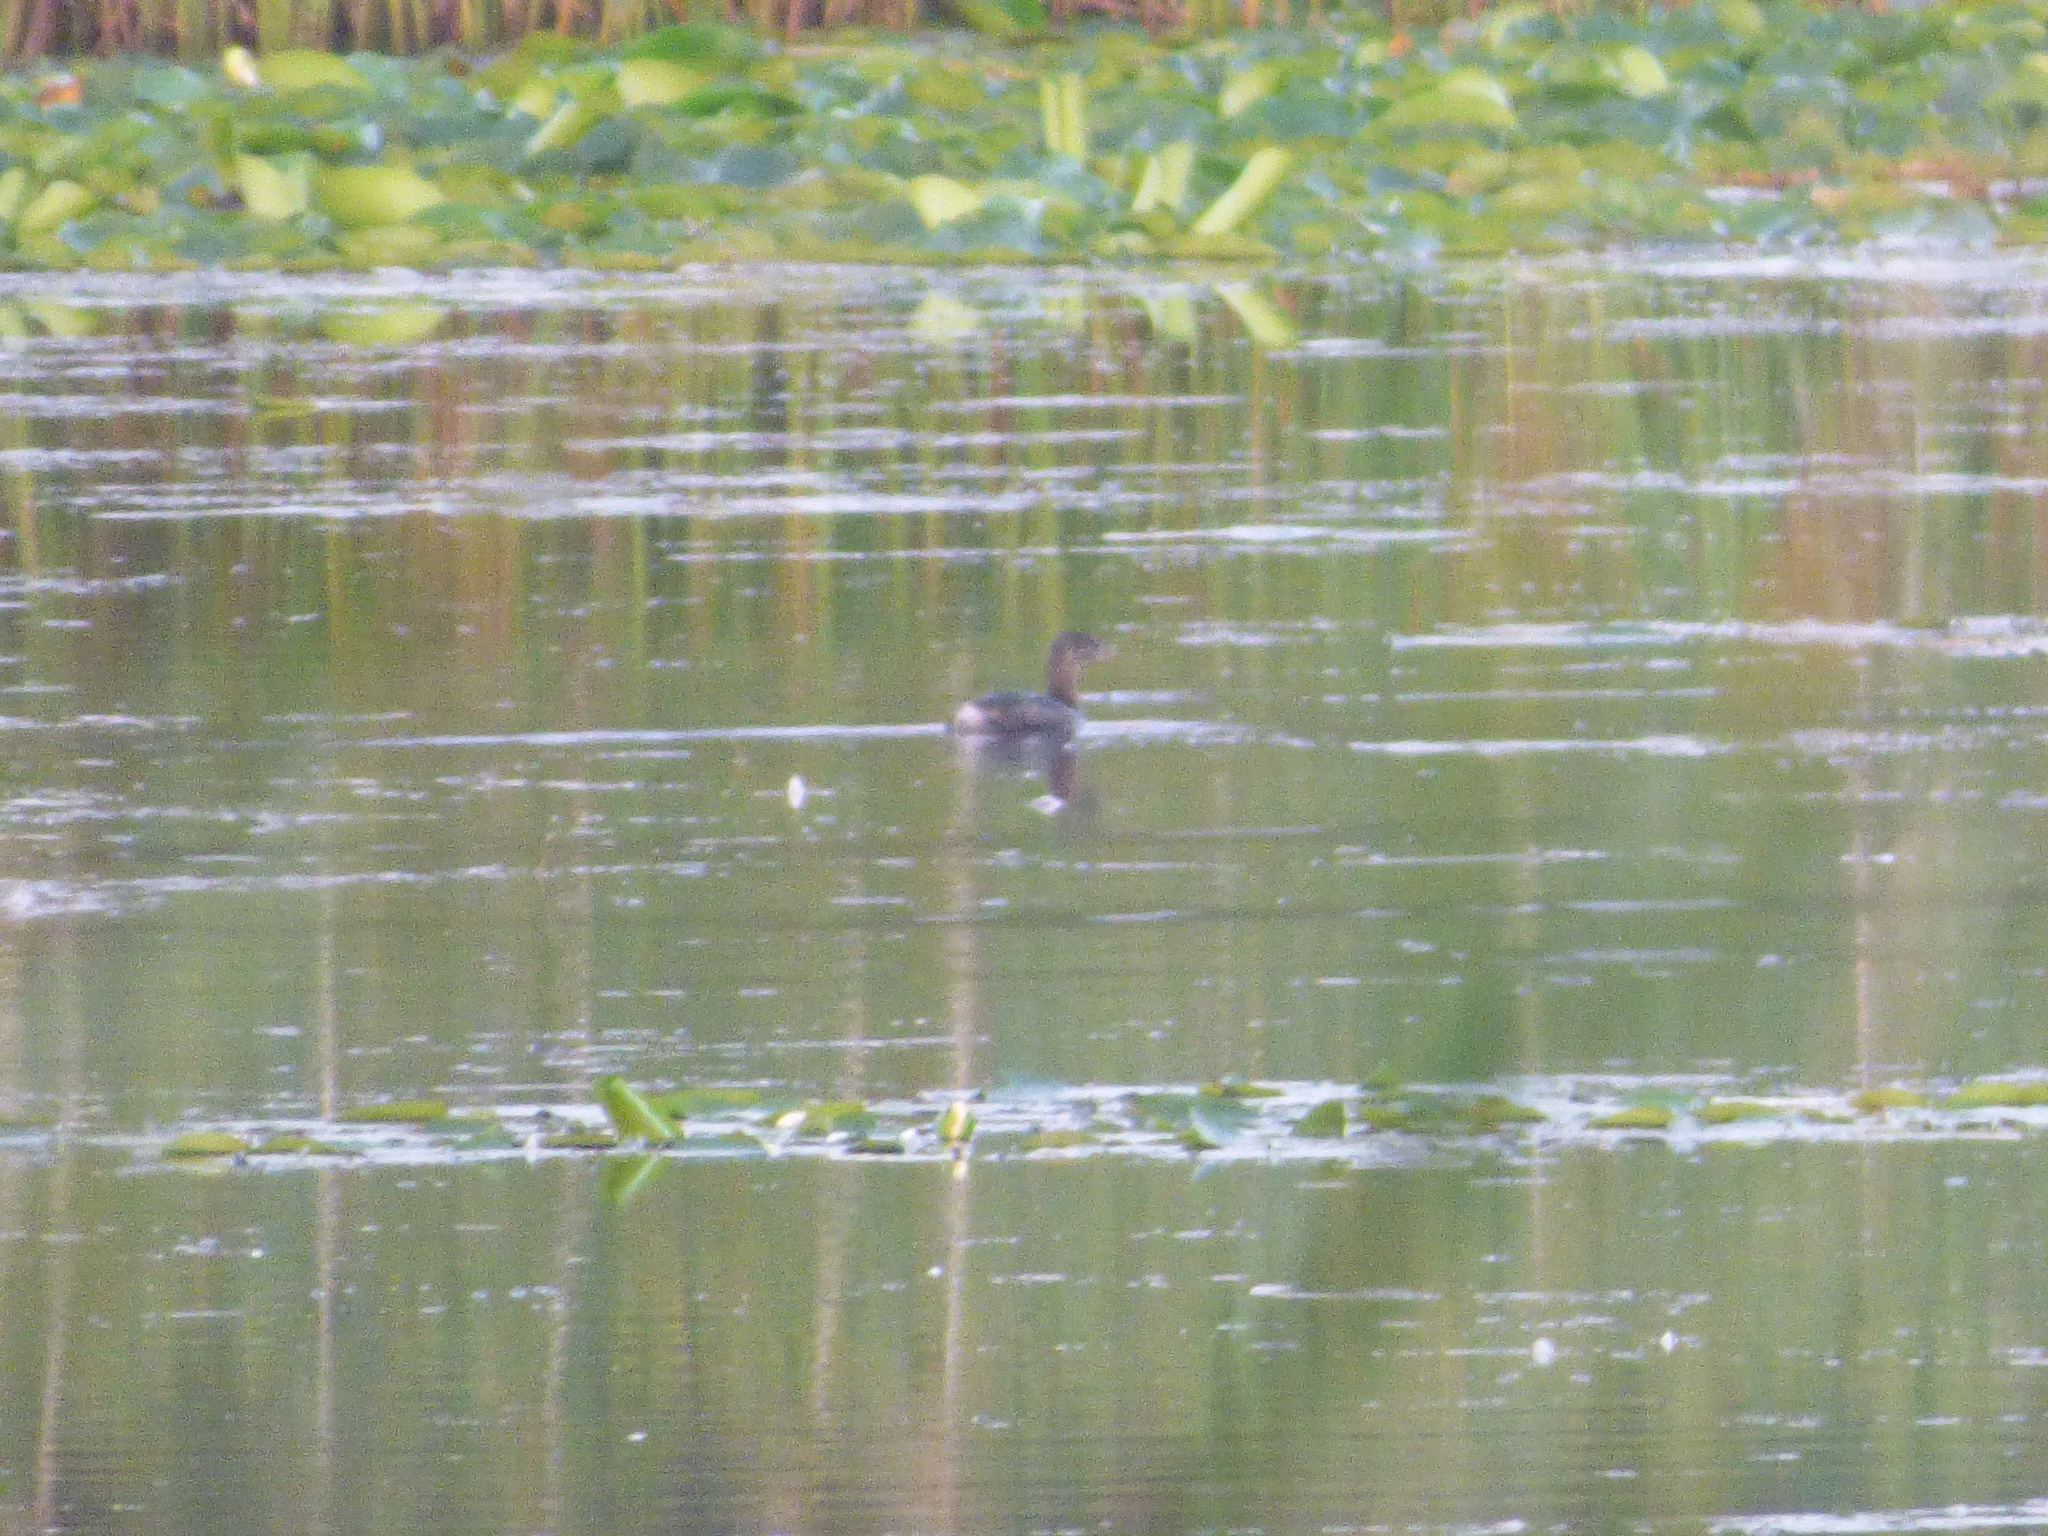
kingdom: Animalia
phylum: Chordata
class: Aves
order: Podicipediformes
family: Podicipedidae
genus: Podilymbus
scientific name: Podilymbus podiceps
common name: Pied-billed grebe
